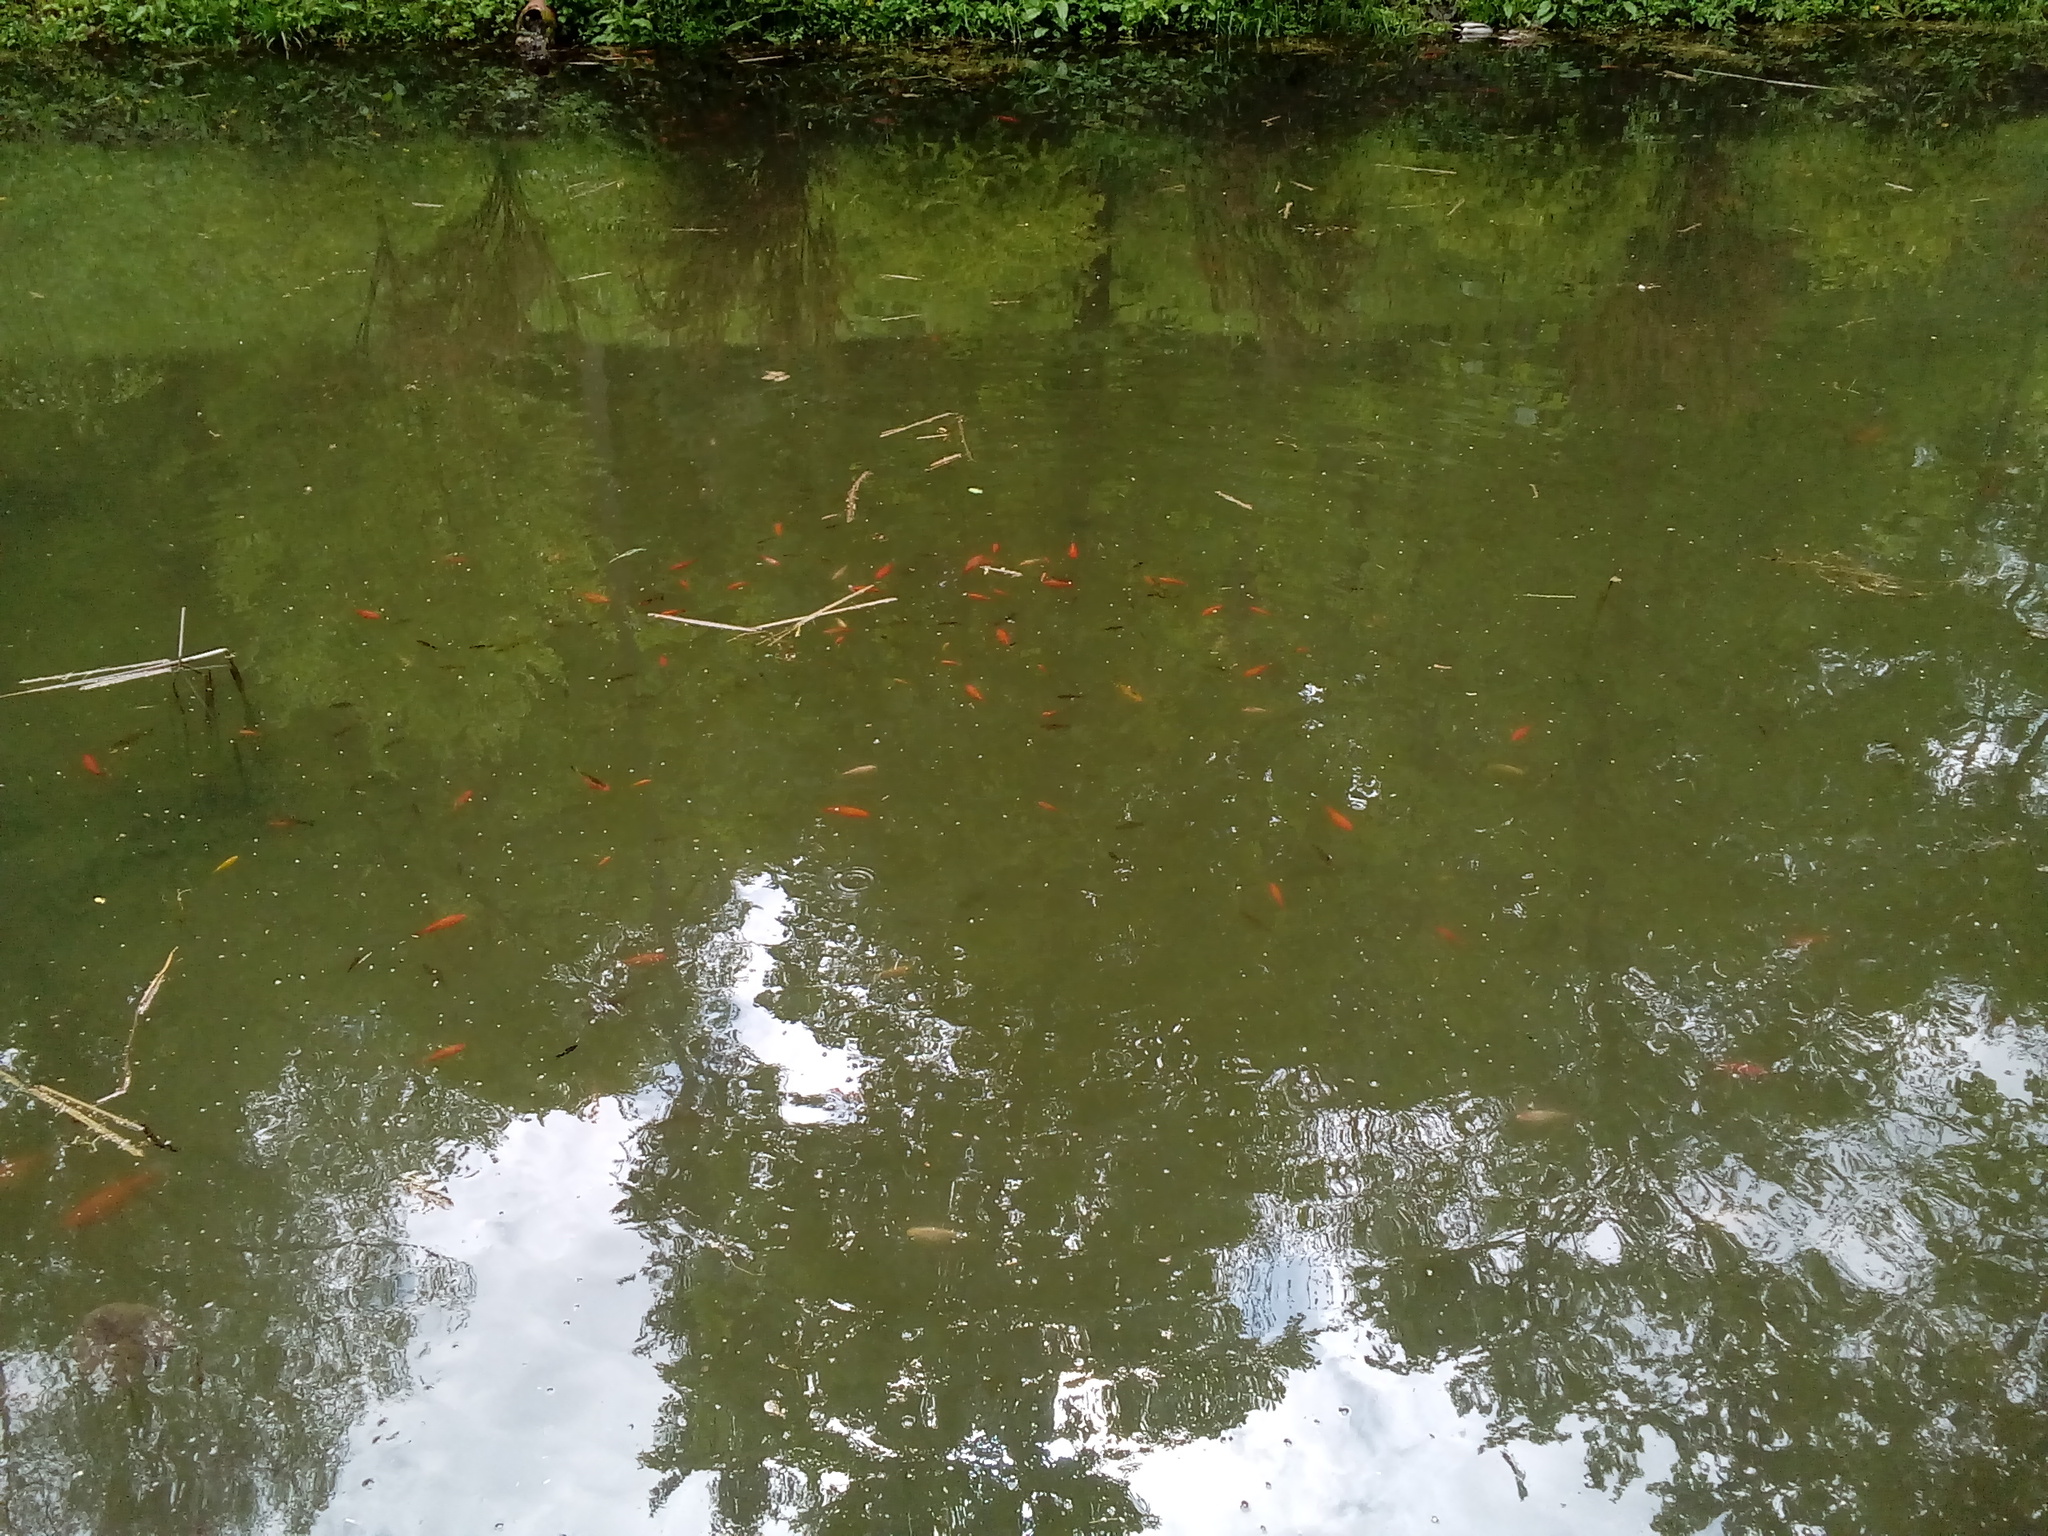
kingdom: Animalia
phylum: Chordata
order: Cypriniformes
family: Cyprinidae
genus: Cyprinus
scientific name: Cyprinus rubrofuscus
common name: Koi
